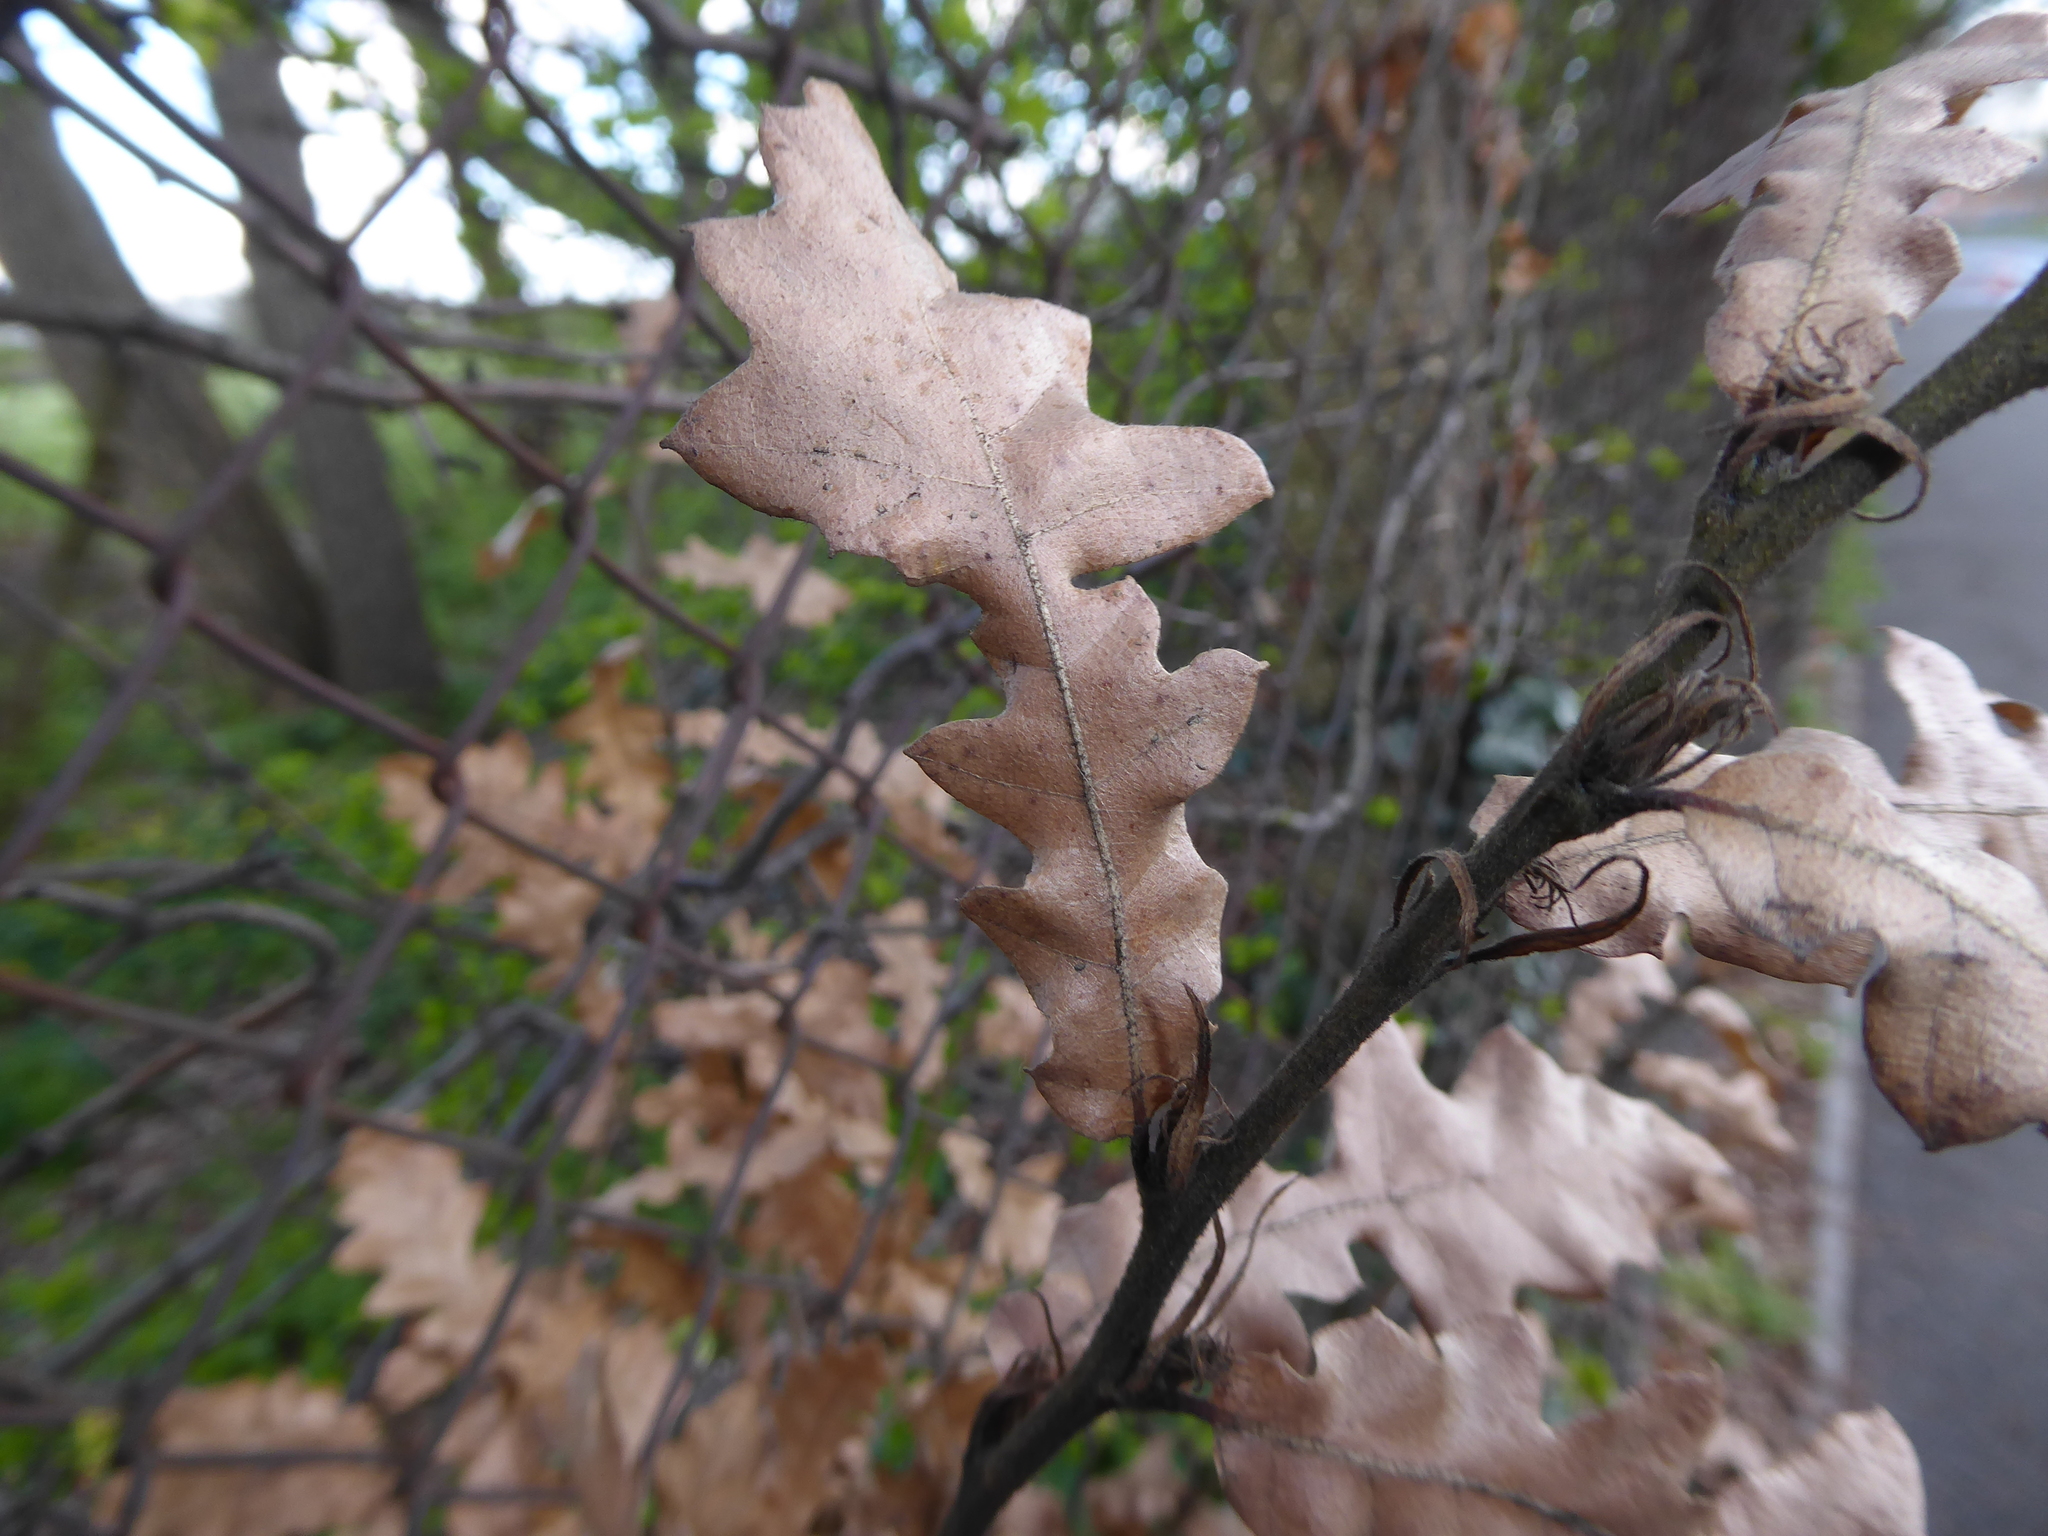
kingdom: Plantae
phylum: Tracheophyta
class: Magnoliopsida
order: Fagales
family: Fagaceae
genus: Quercus
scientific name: Quercus cerris
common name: Turkey oak
